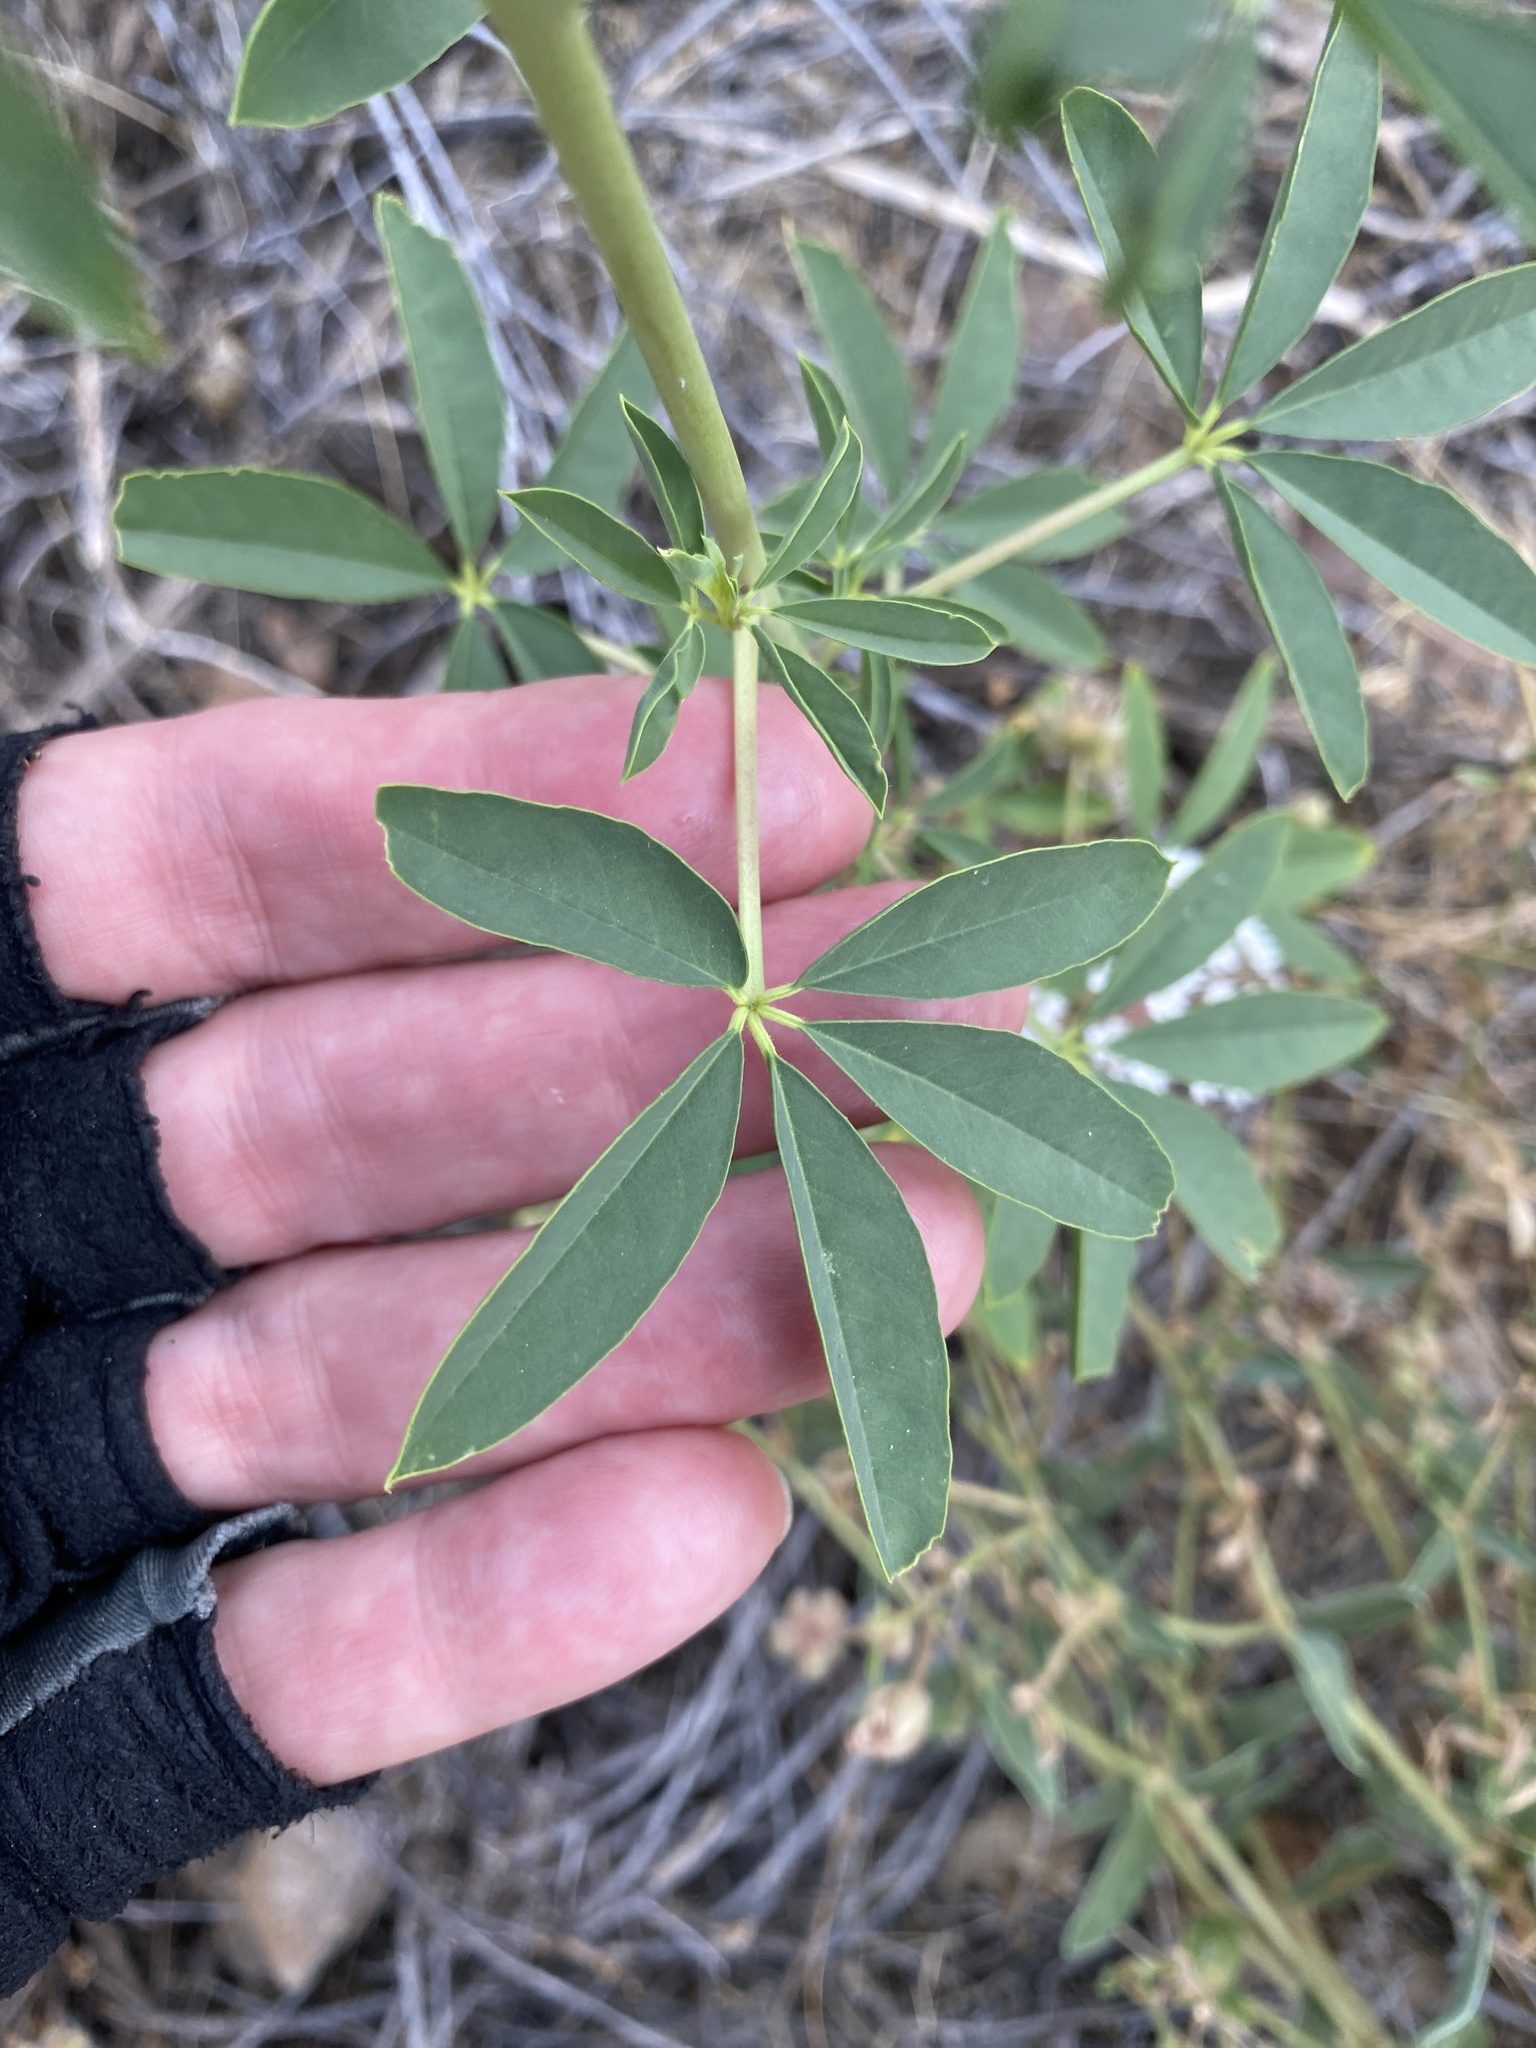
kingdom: Plantae
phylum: Tracheophyta
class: Magnoliopsida
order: Brassicales
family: Cleomaceae
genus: Cleomella
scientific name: Cleomella lutea
